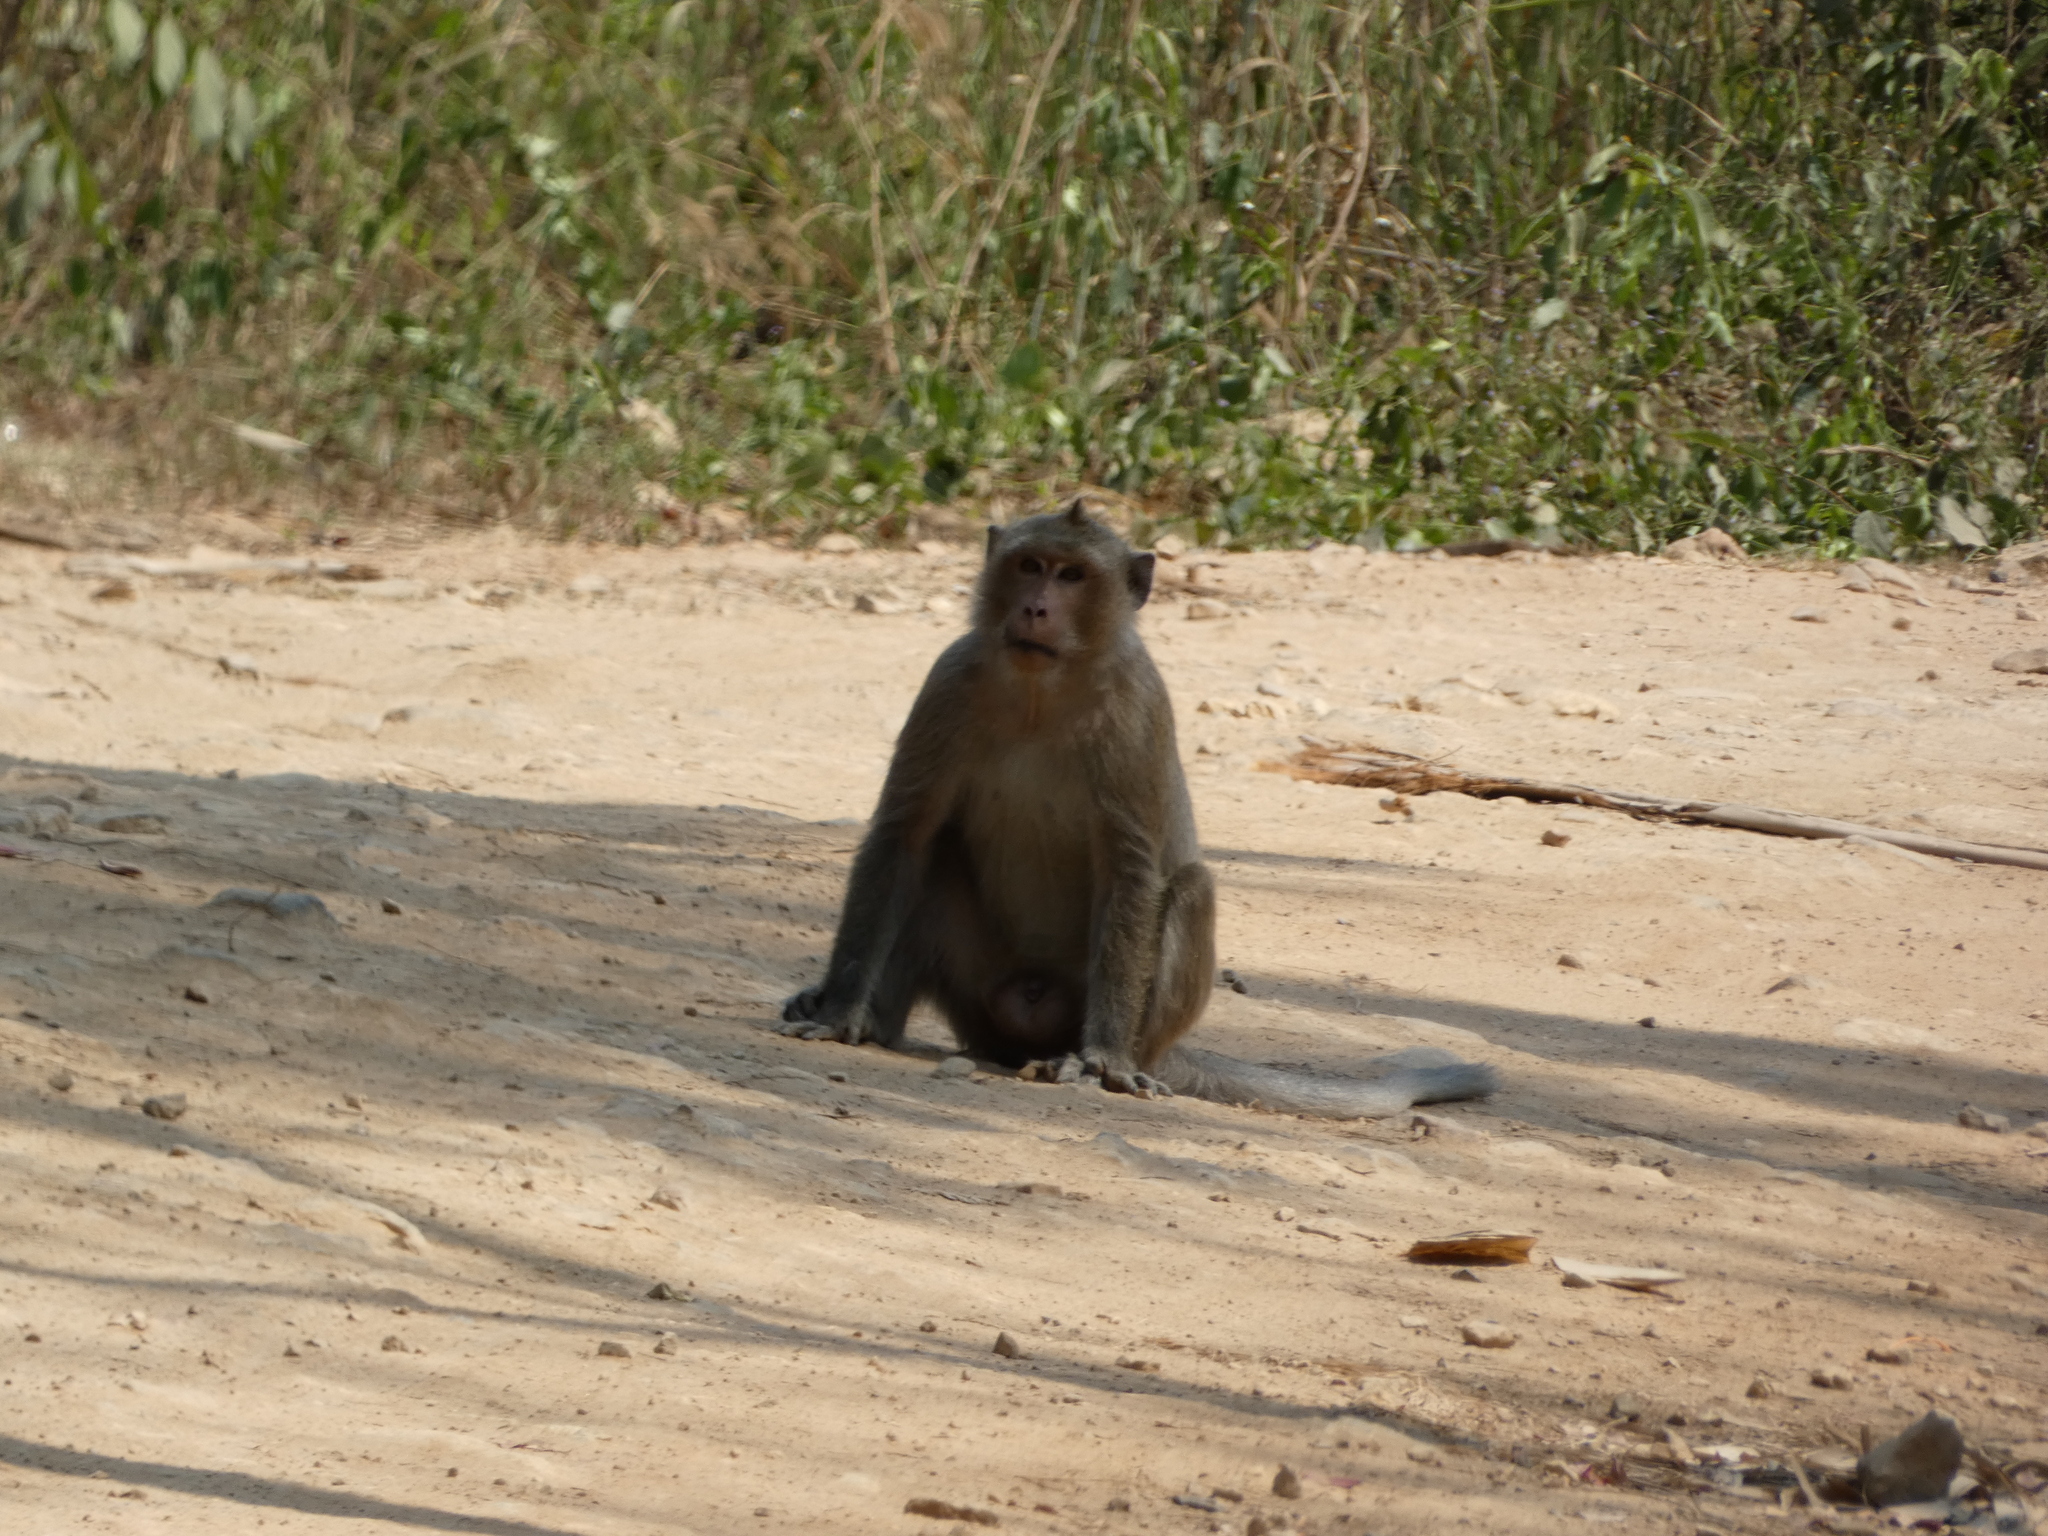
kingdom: Animalia
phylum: Chordata
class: Mammalia
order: Primates
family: Cercopithecidae
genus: Macaca
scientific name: Macaca fascicularis
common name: Crab-eating macaque
